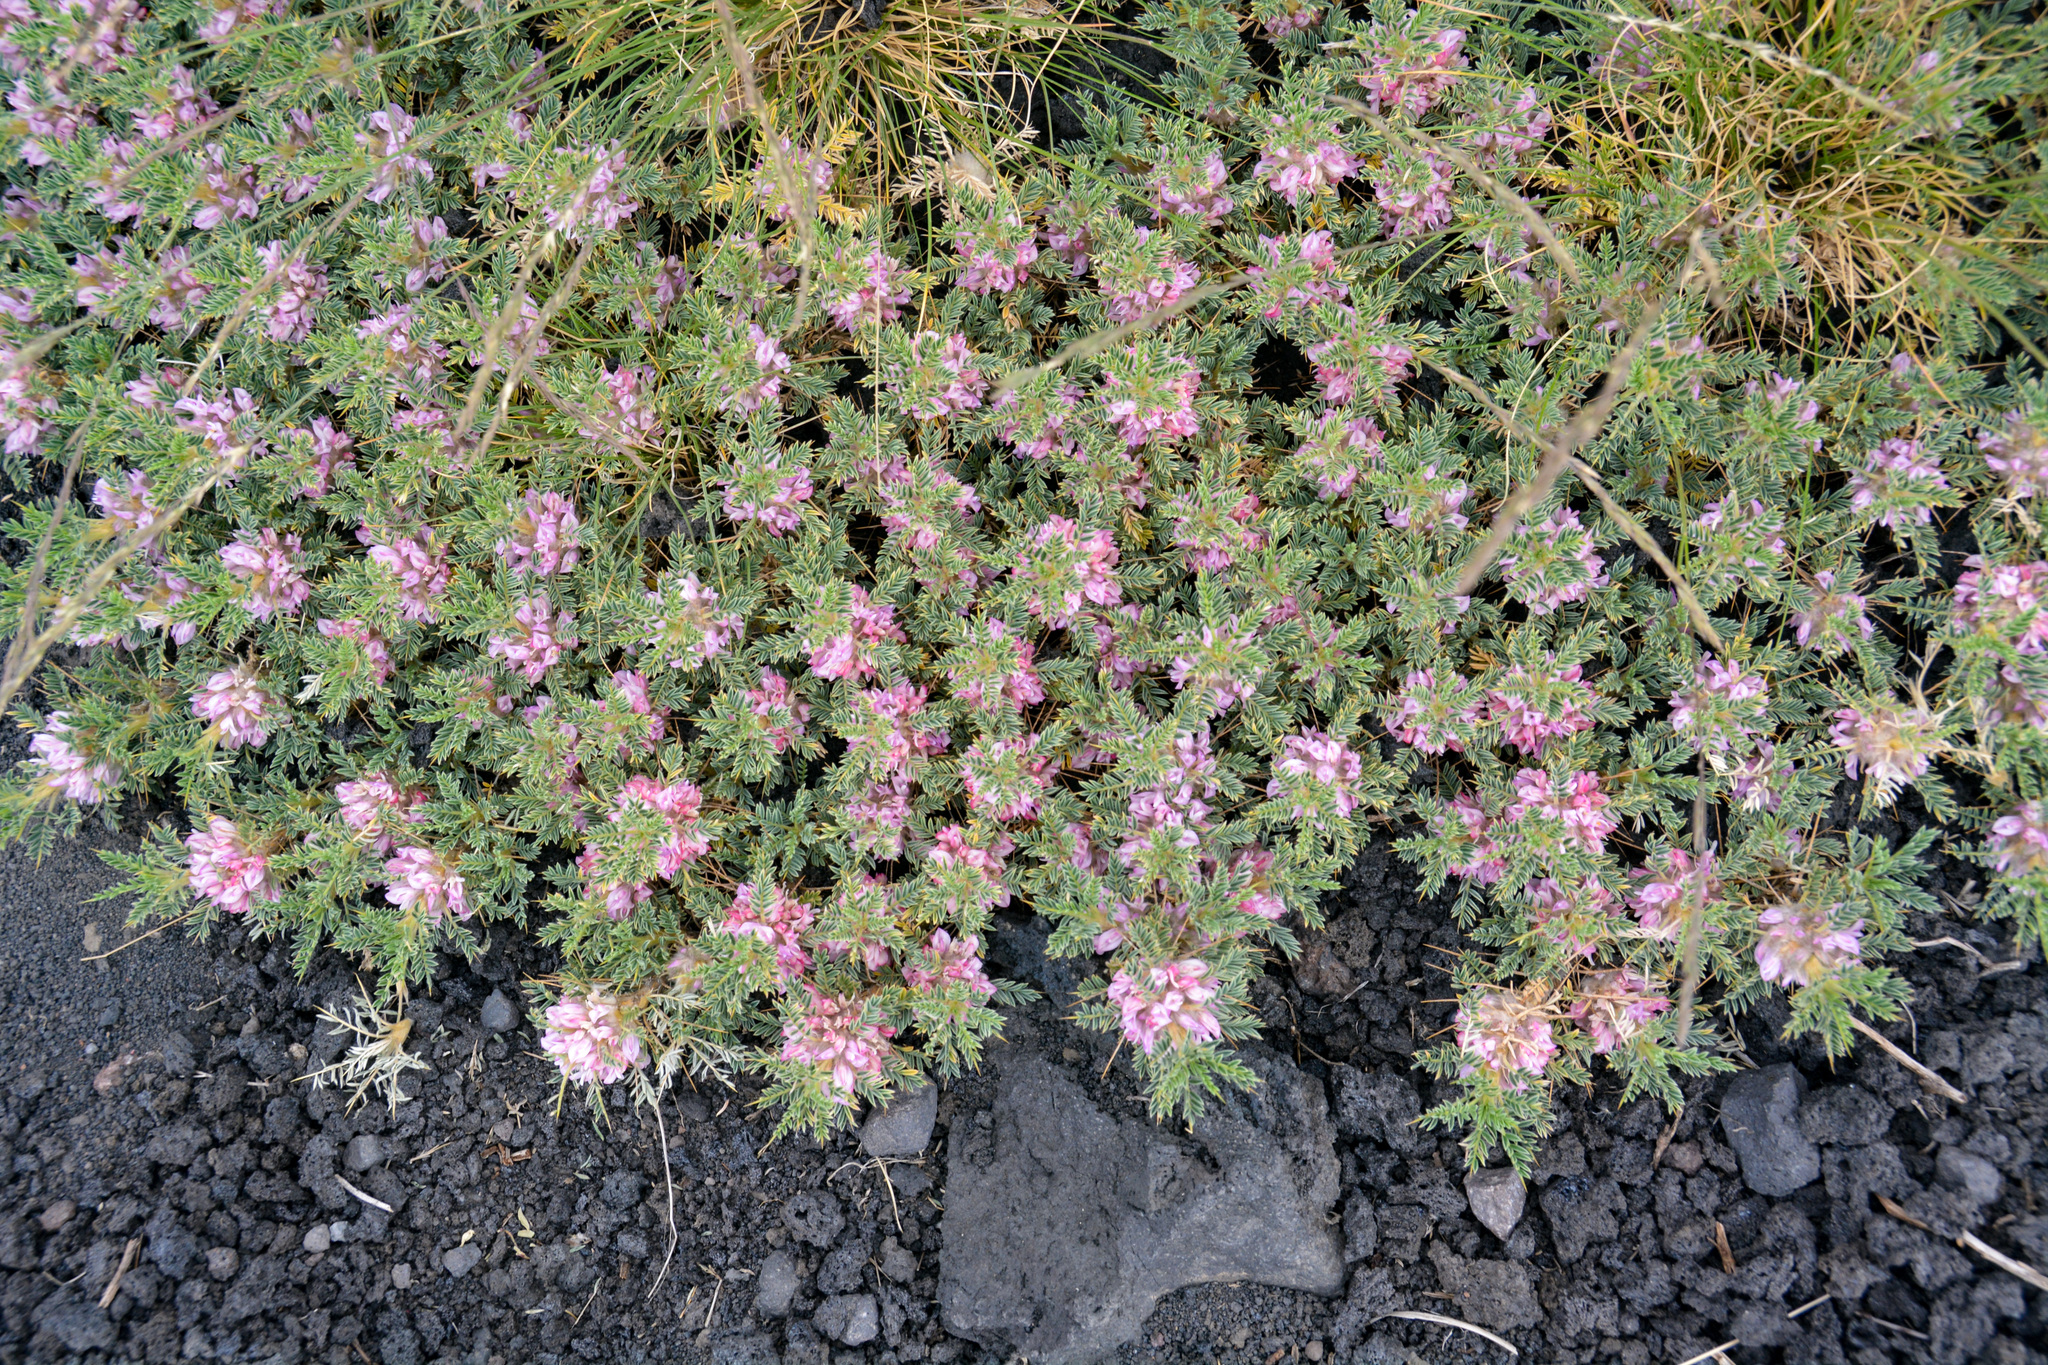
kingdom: Plantae
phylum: Tracheophyta
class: Magnoliopsida
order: Fabales
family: Fabaceae
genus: Astragalus
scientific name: Astragalus siculus
